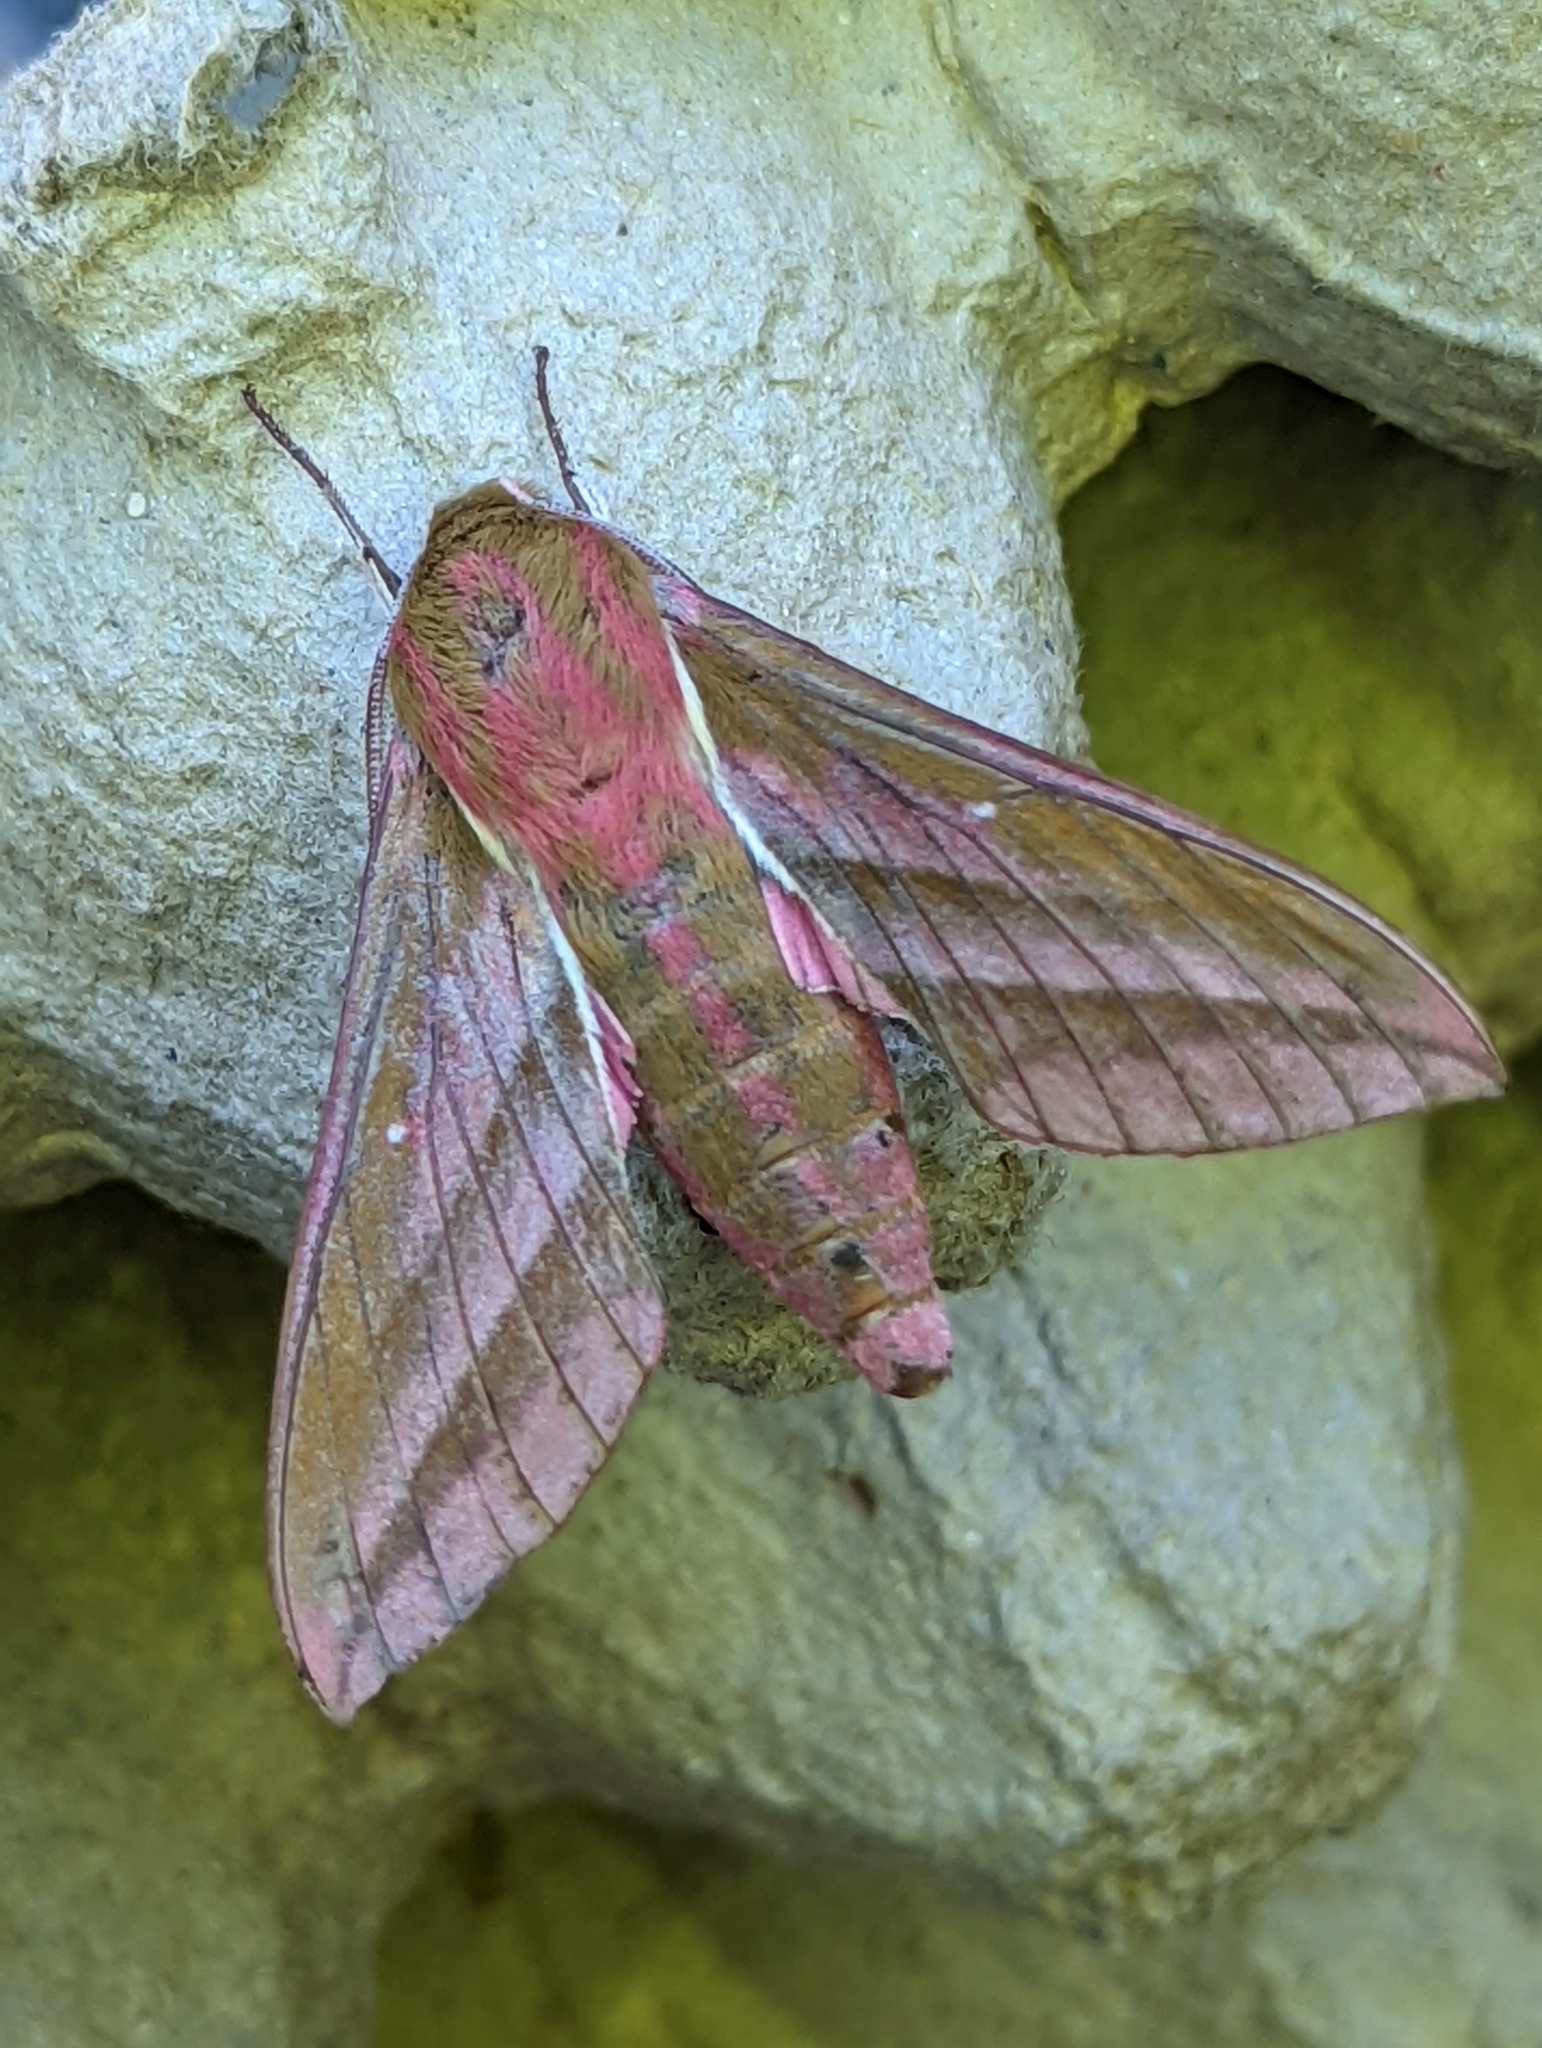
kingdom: Animalia
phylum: Arthropoda
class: Insecta
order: Lepidoptera
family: Sphingidae
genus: Deilephila
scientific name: Deilephila elpenor
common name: Elephant hawk-moth
